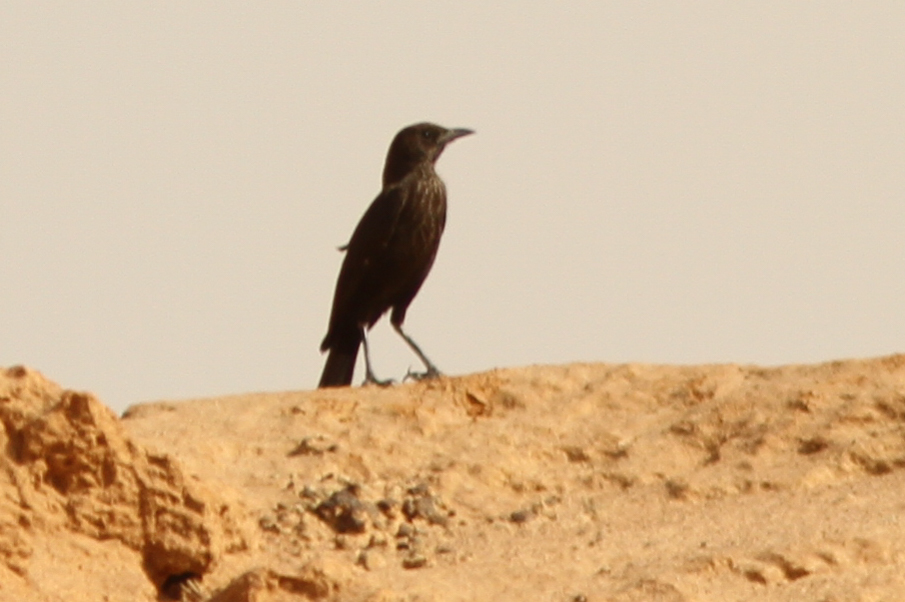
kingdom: Animalia
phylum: Chordata
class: Aves
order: Passeriformes
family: Muscicapidae
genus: Myrmecocichla
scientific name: Myrmecocichla aethiops
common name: Anteater chat
